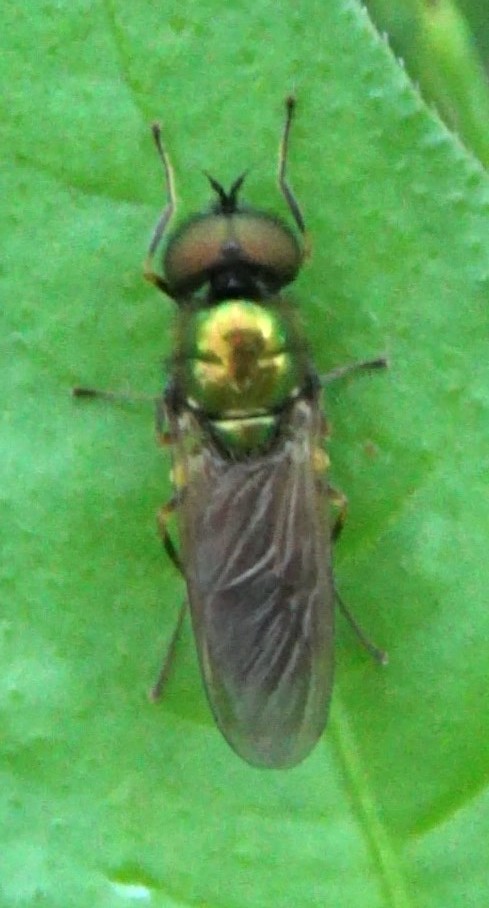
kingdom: Animalia
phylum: Arthropoda
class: Insecta
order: Diptera
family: Stratiomyidae
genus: Chloromyia
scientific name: Chloromyia formosa
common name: Soldier fly
